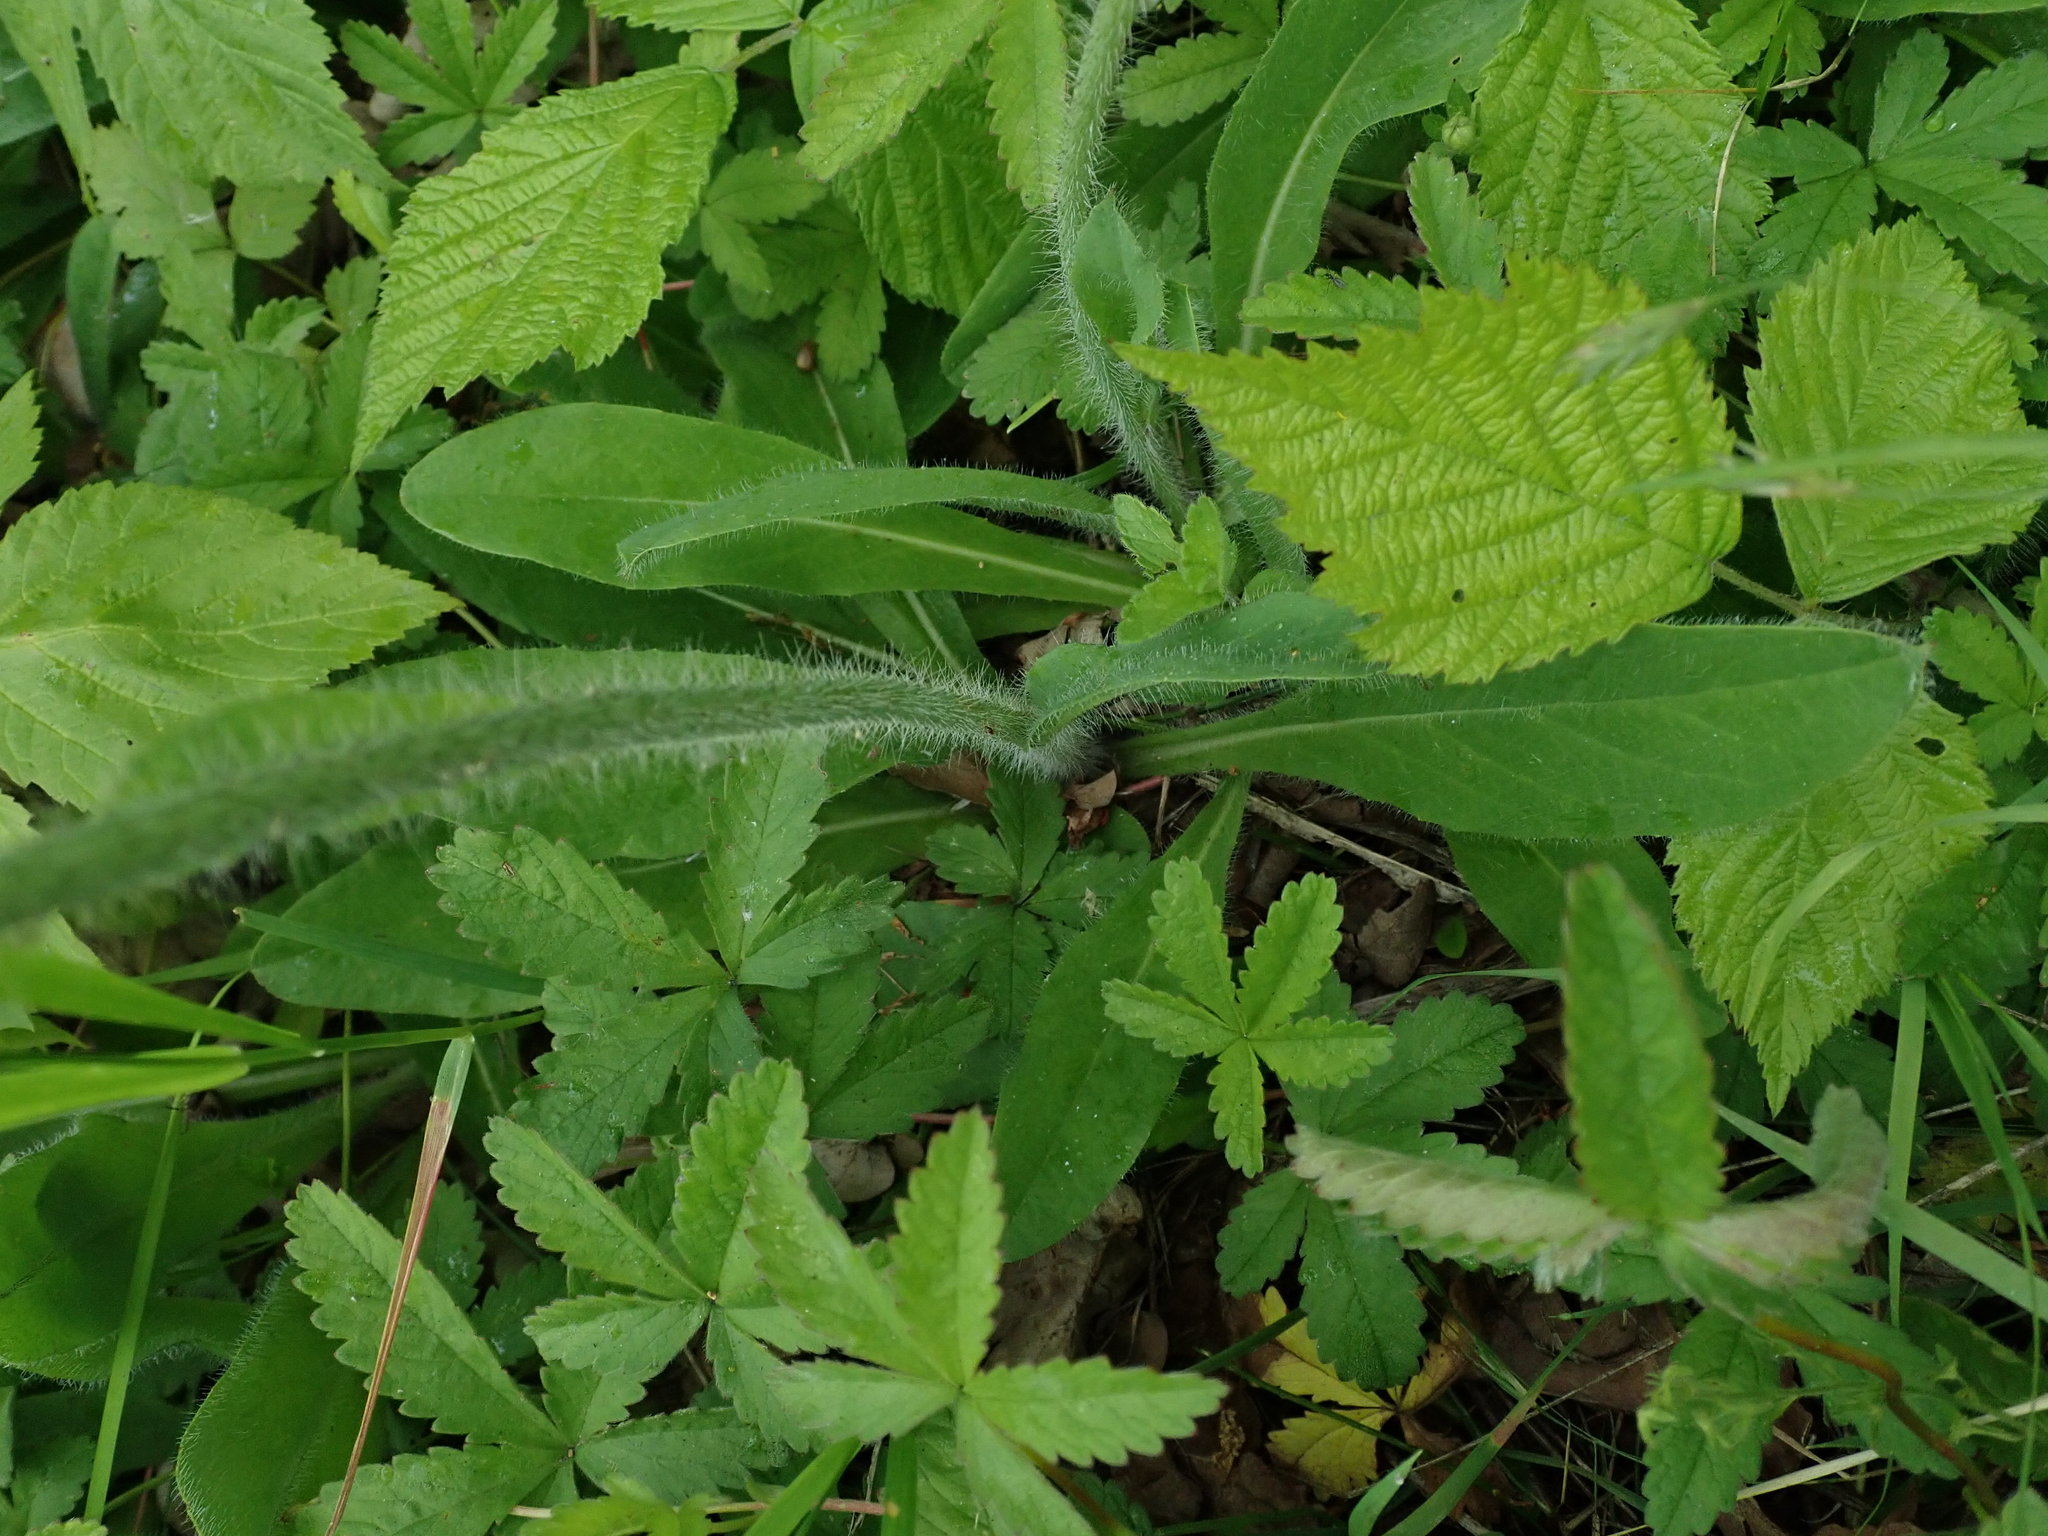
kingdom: Plantae
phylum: Tracheophyta
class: Magnoliopsida
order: Asterales
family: Asteraceae
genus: Pilosella
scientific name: Pilosella aurantiaca
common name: Fox-and-cubs
